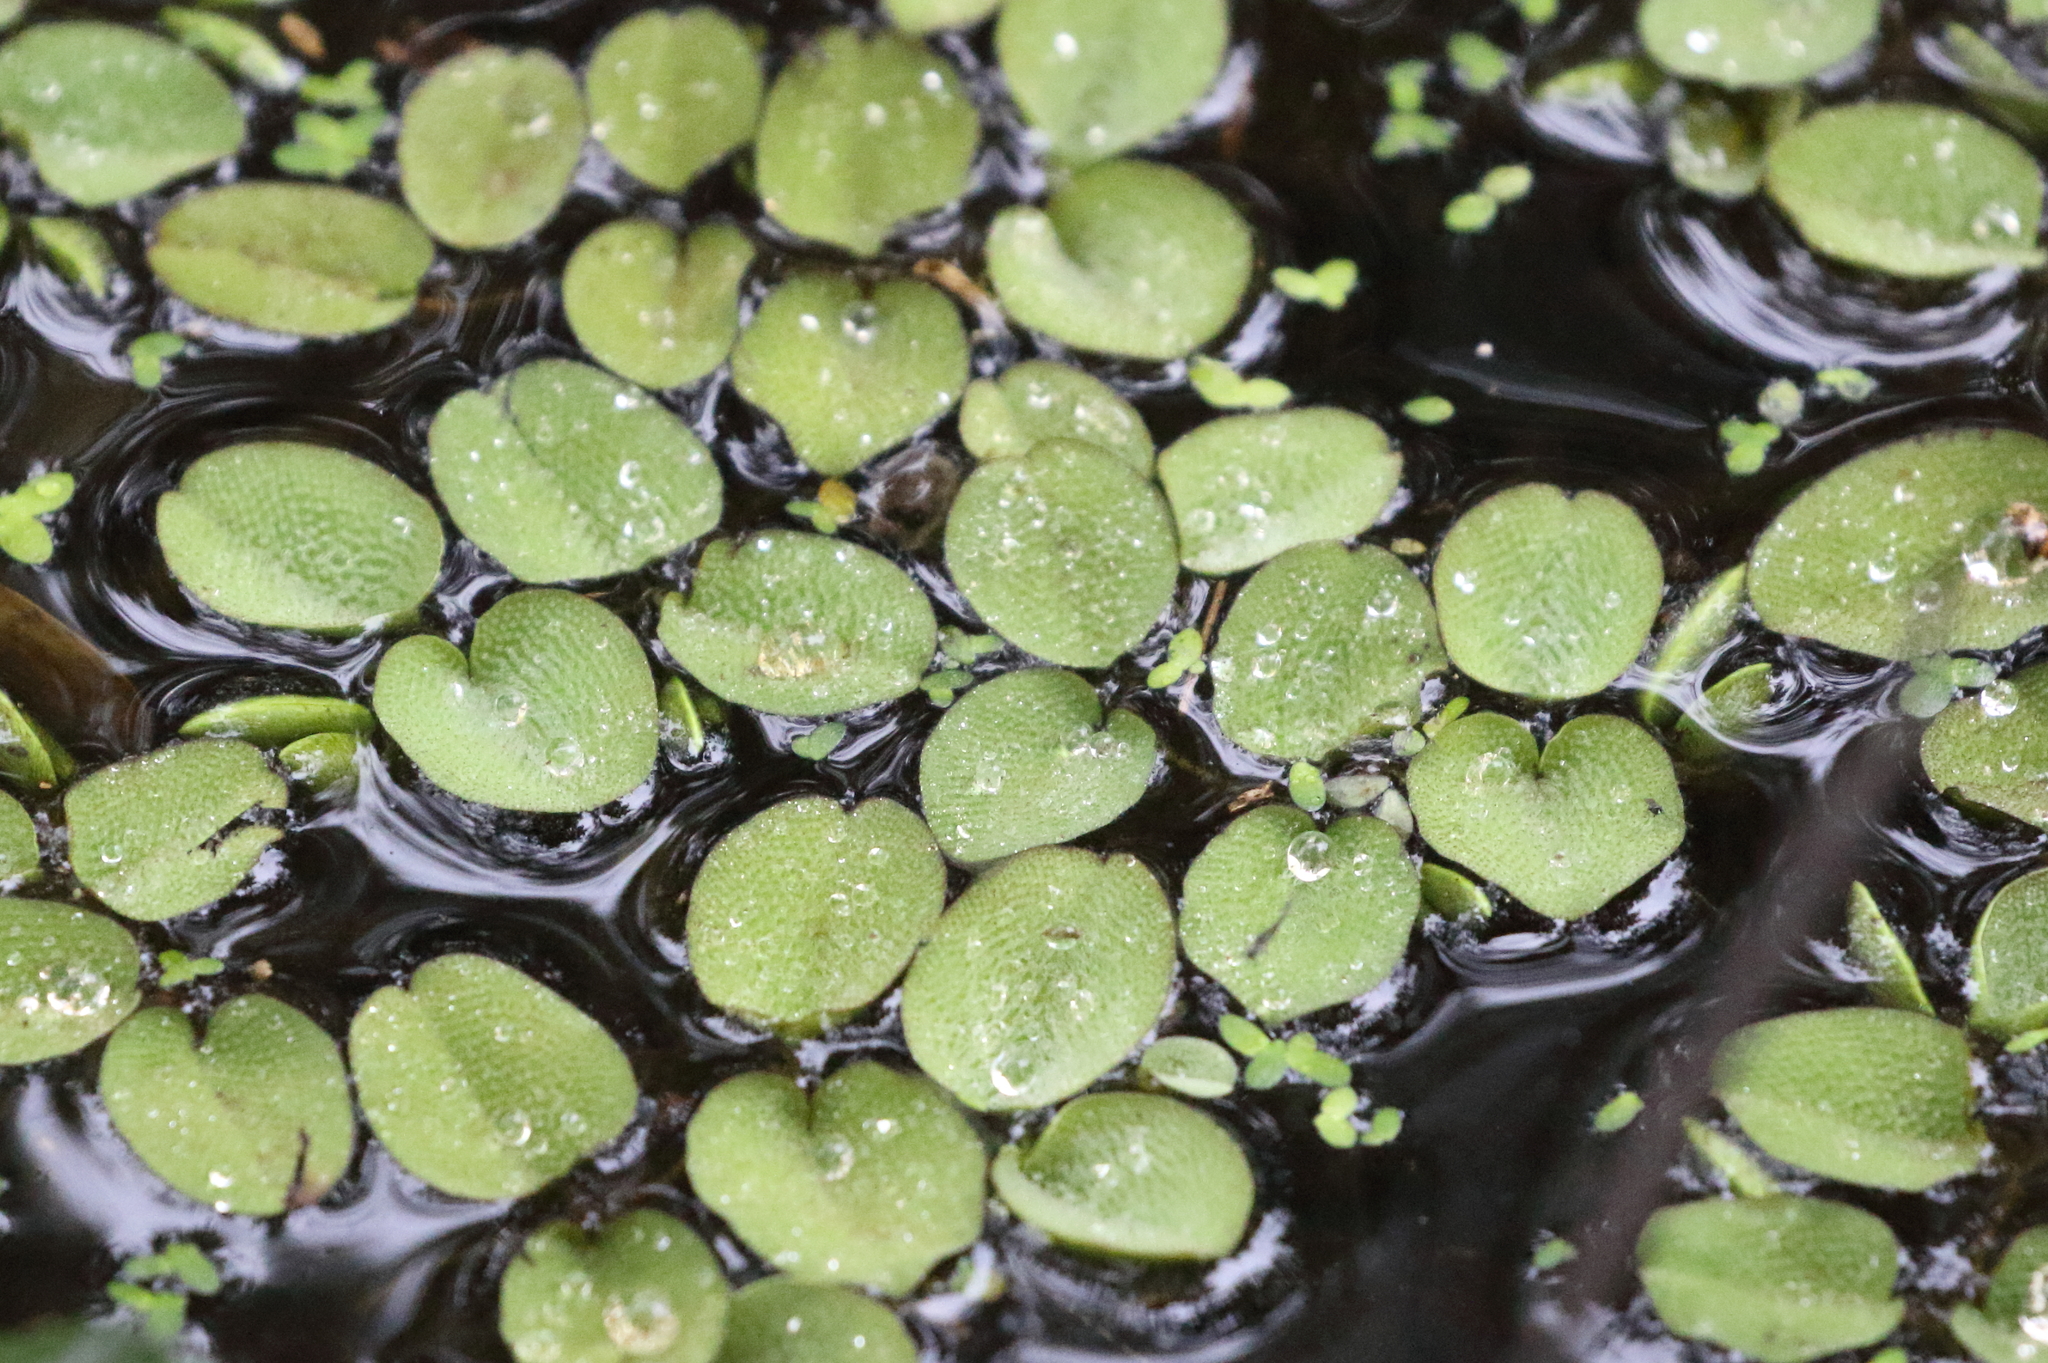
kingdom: Plantae
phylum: Tracheophyta
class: Polypodiopsida
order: Salviniales
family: Salviniaceae
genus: Salvinia
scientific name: Salvinia molesta
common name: Kariba weed
